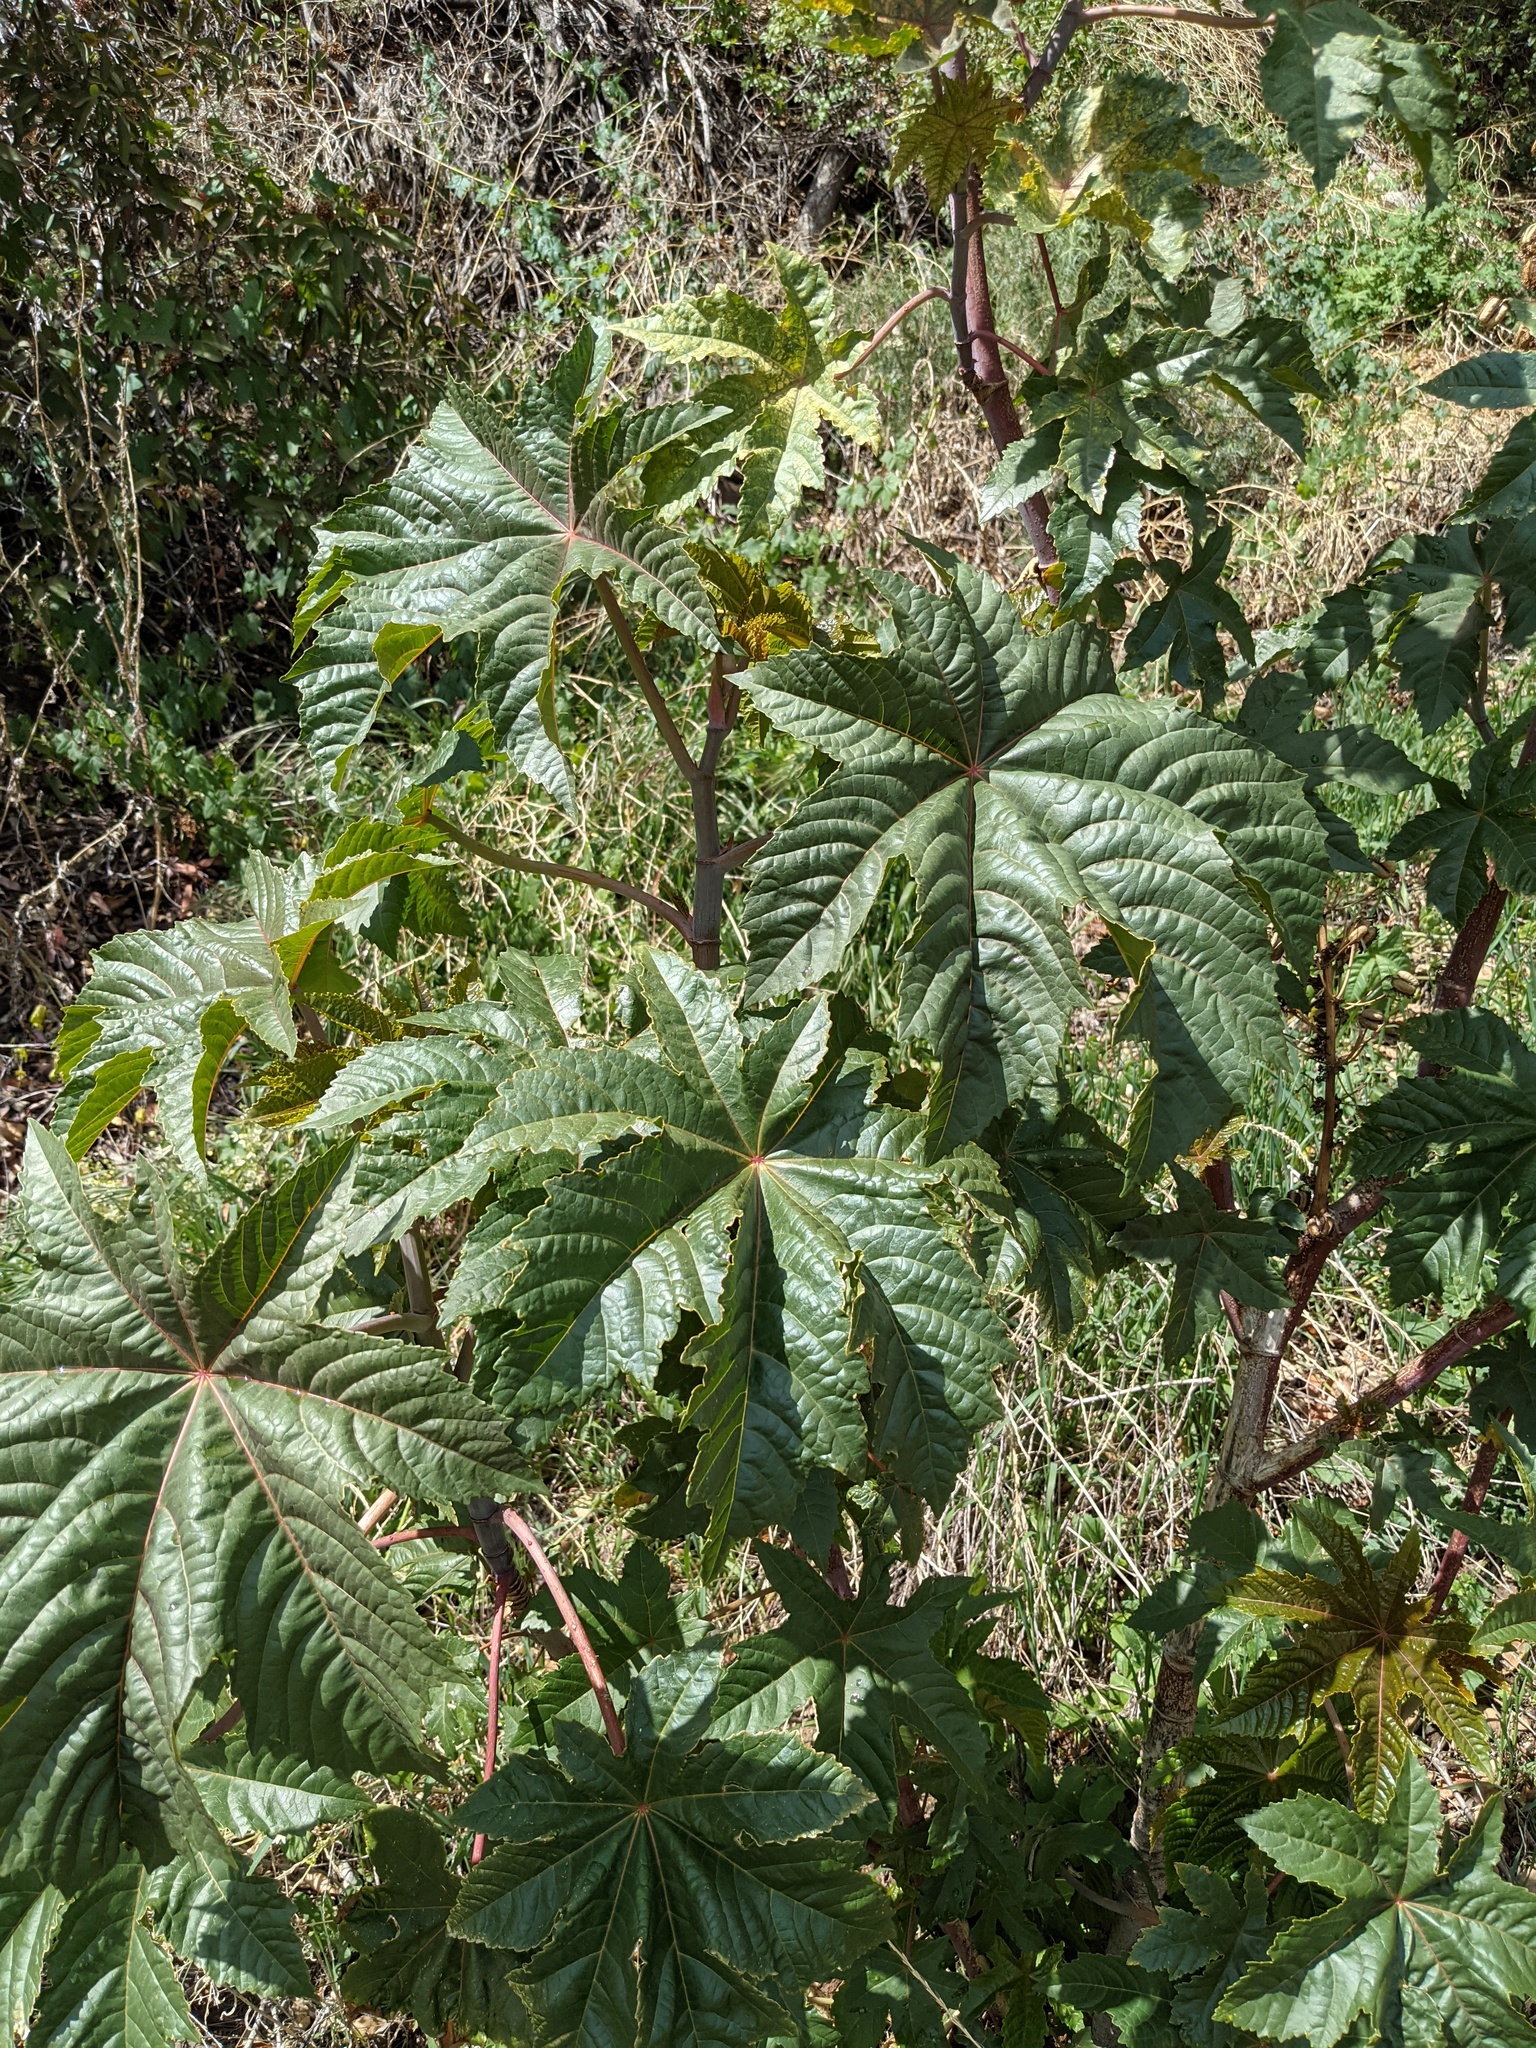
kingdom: Plantae
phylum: Tracheophyta
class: Magnoliopsida
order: Malpighiales
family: Euphorbiaceae
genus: Ricinus
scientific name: Ricinus communis
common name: Castor-oil-plant
